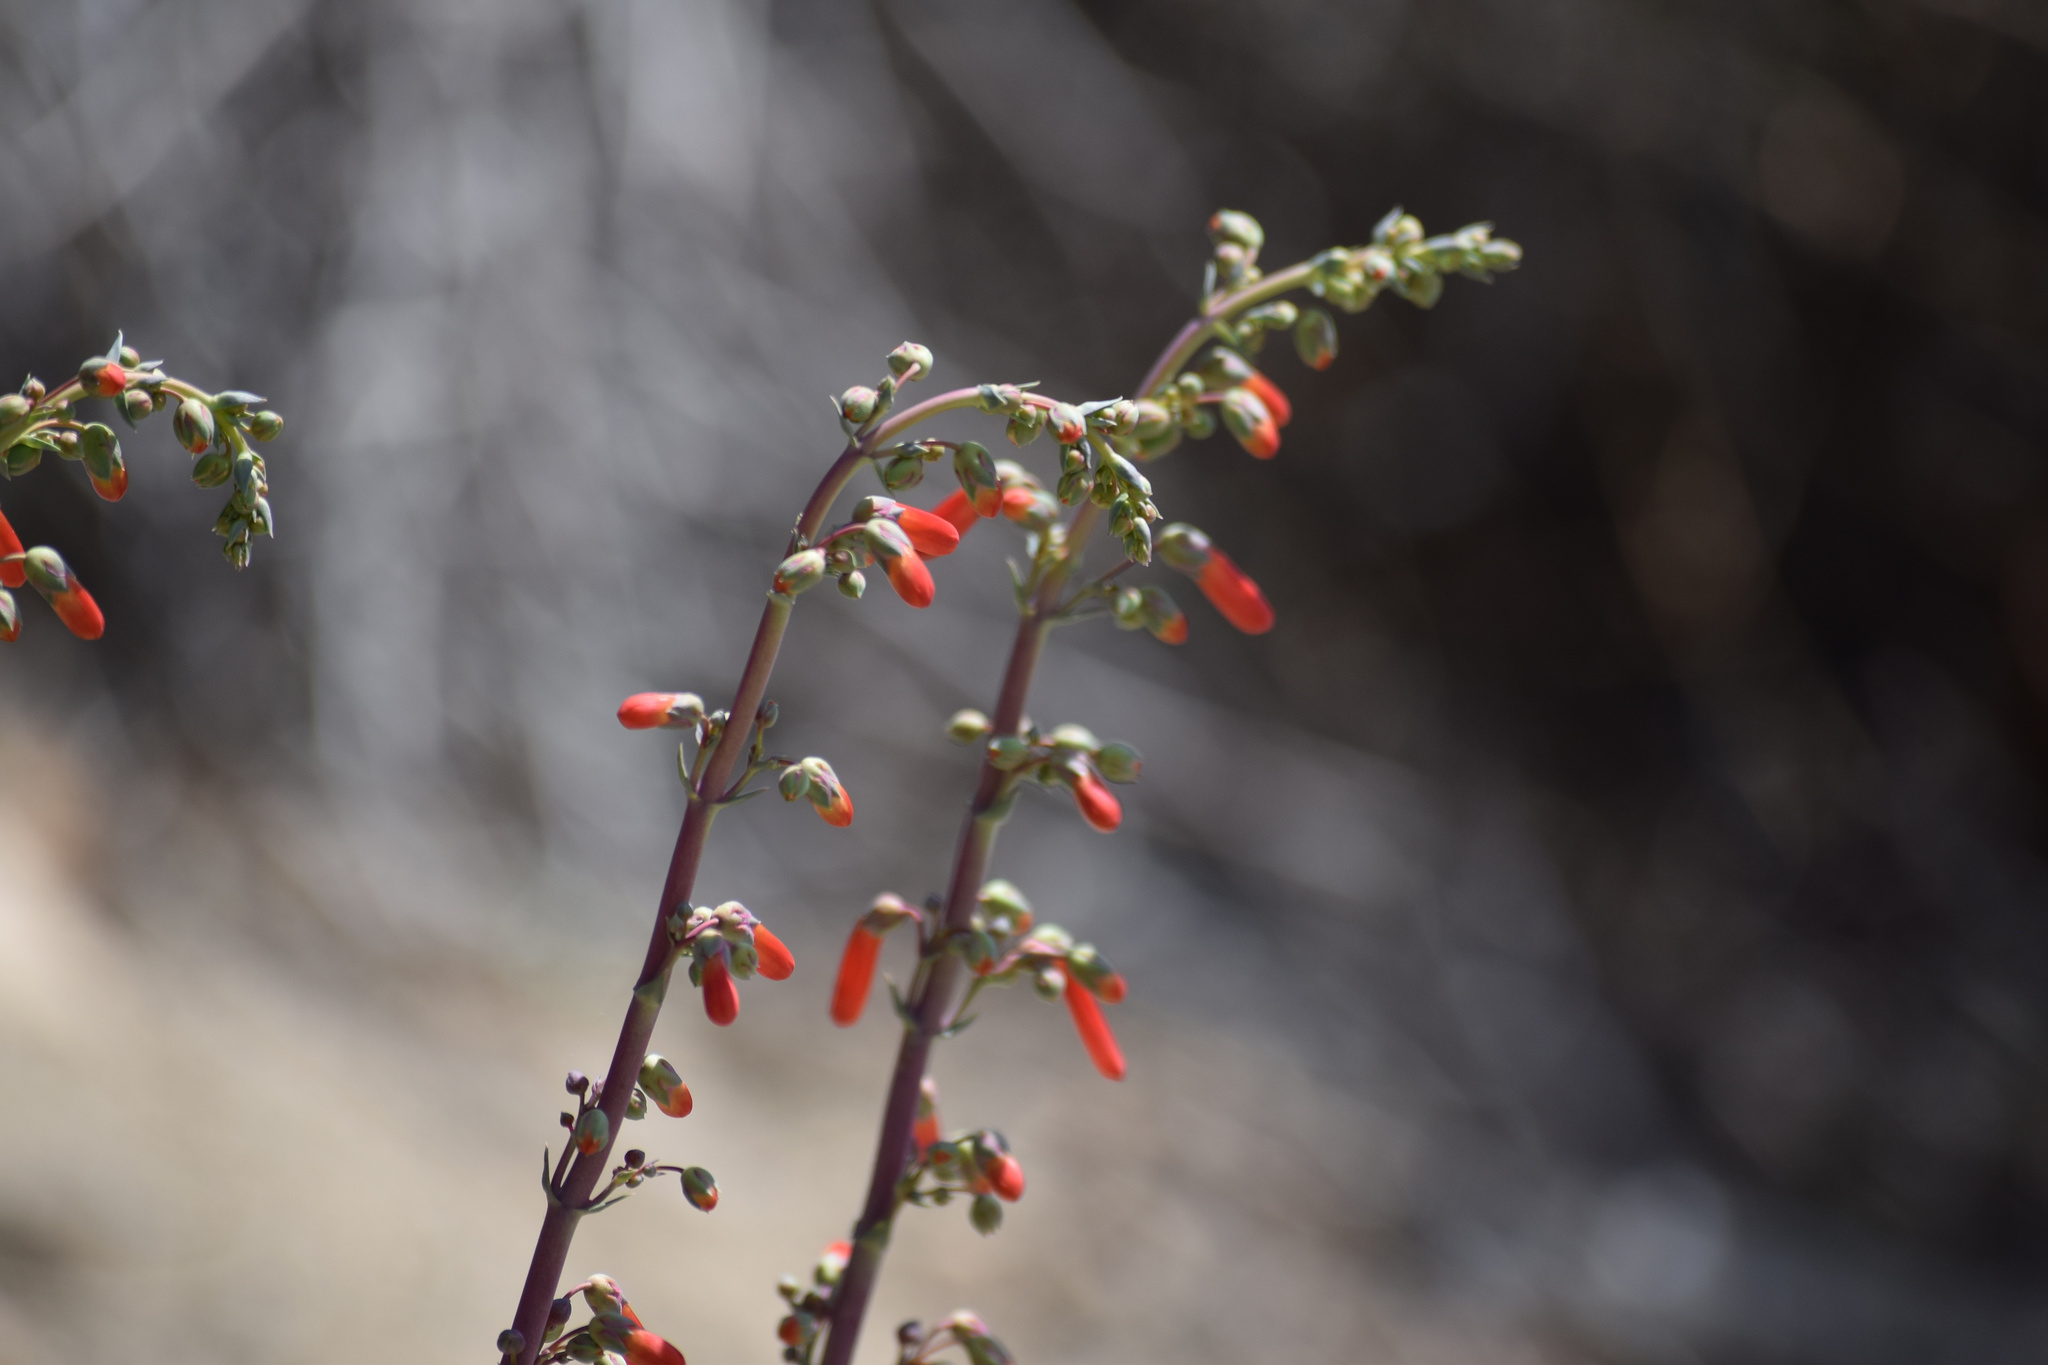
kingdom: Plantae
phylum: Tracheophyta
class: Magnoliopsida
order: Lamiales
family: Plantaginaceae
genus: Penstemon
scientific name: Penstemon centranthifolius
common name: Scarlet bugler
